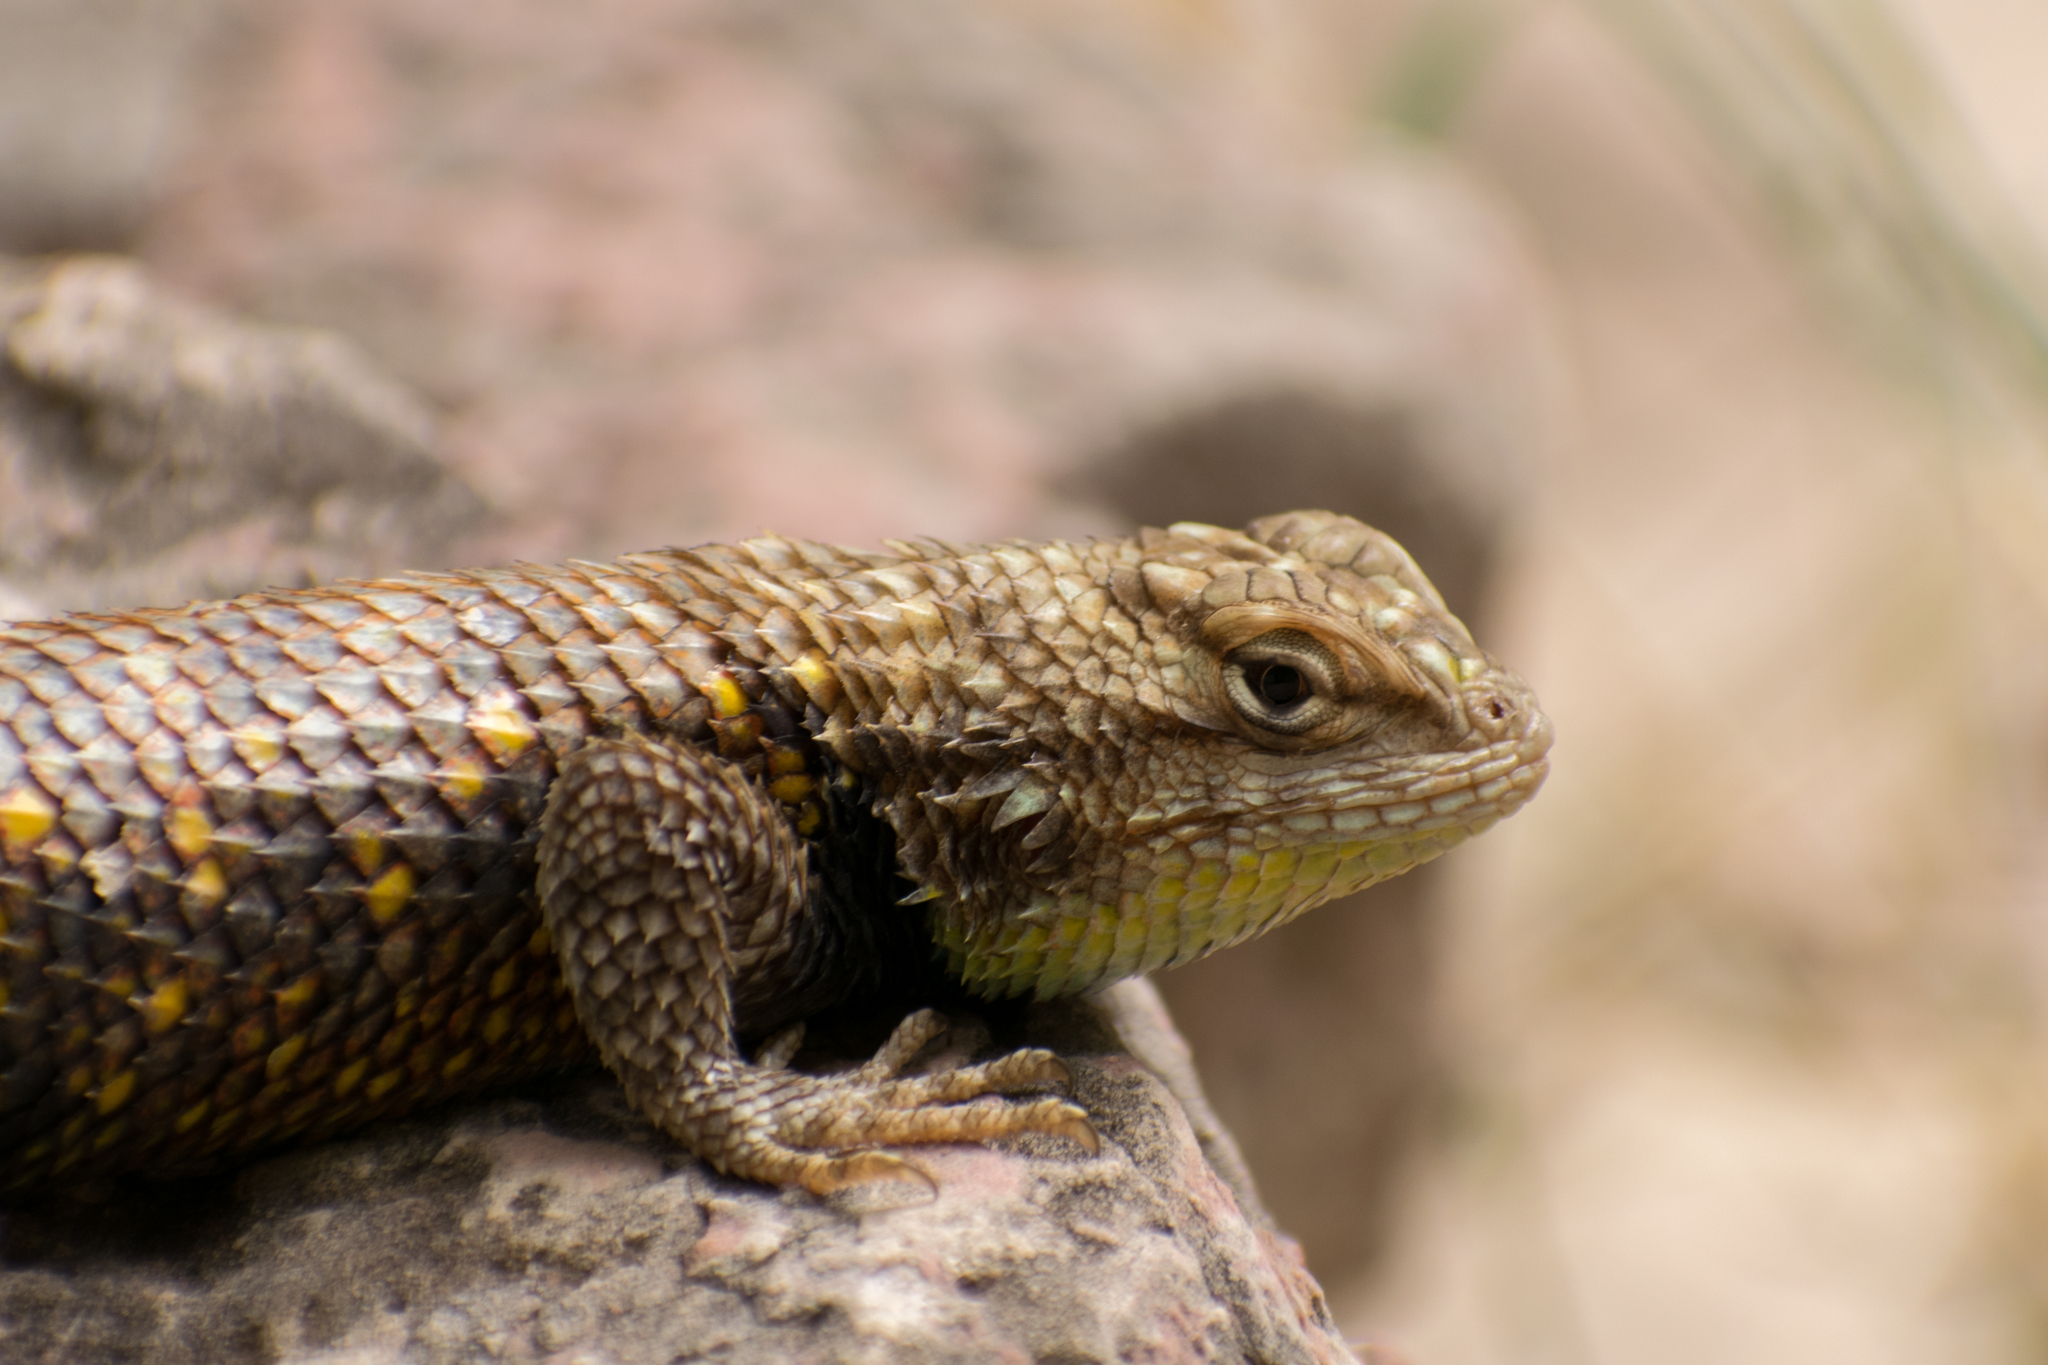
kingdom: Animalia
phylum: Chordata
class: Squamata
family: Phrynosomatidae
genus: Sceloporus
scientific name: Sceloporus magister
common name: Desert spiny lizard
